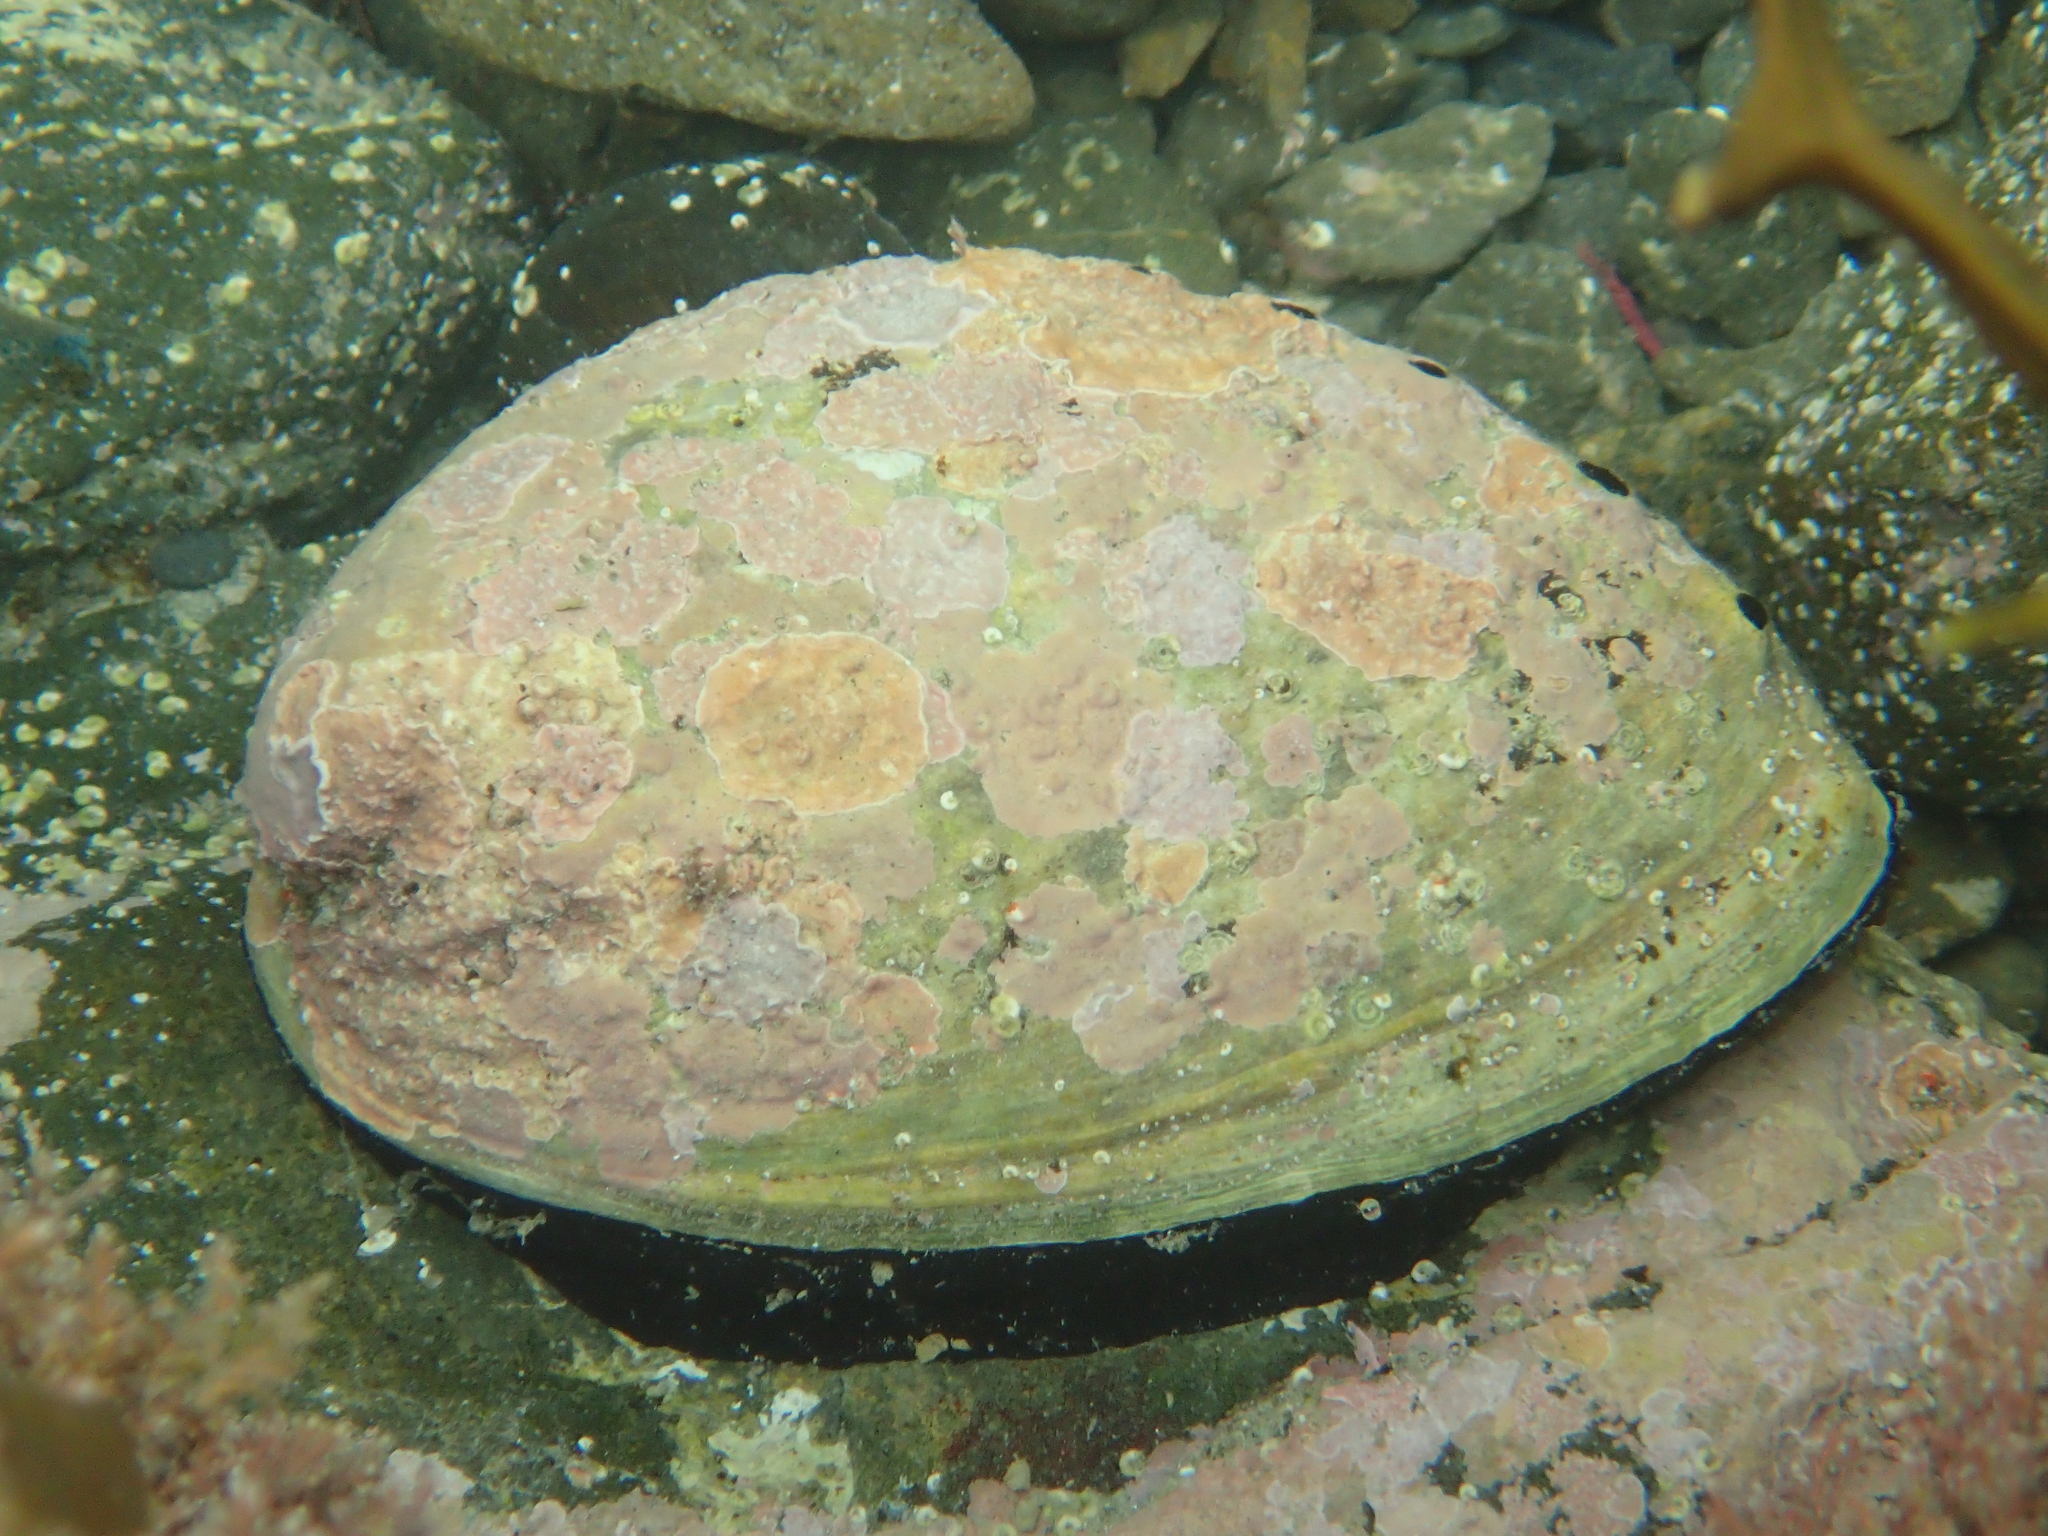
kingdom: Animalia
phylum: Mollusca
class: Gastropoda
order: Lepetellida
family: Haliotidae
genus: Haliotis
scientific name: Haliotis iris
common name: Abalone
